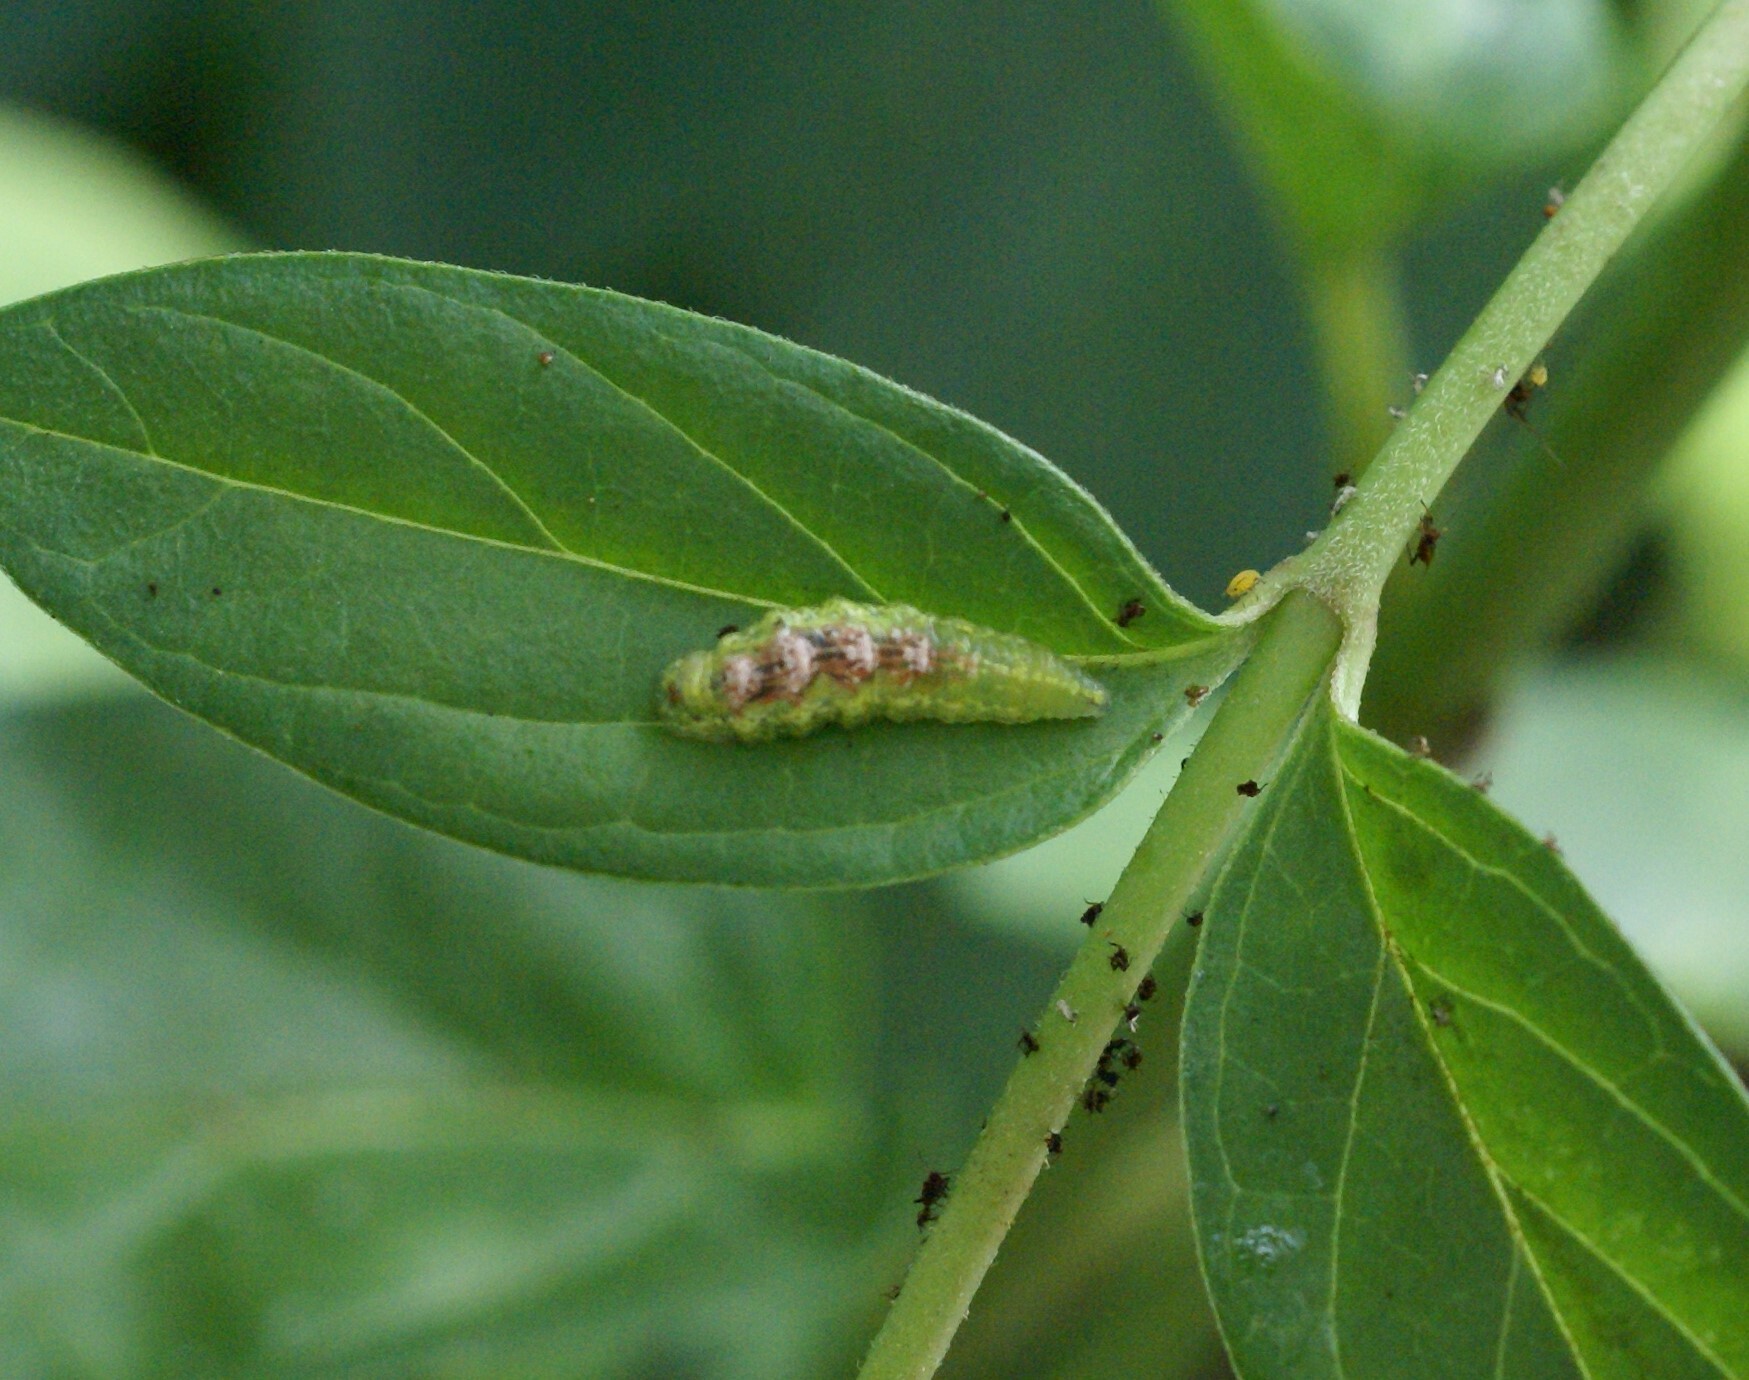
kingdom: Animalia
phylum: Arthropoda
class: Insecta
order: Diptera
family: Syrphidae
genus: Eupeodes
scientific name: Eupeodes pomus
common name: Short-tailed aphideater
